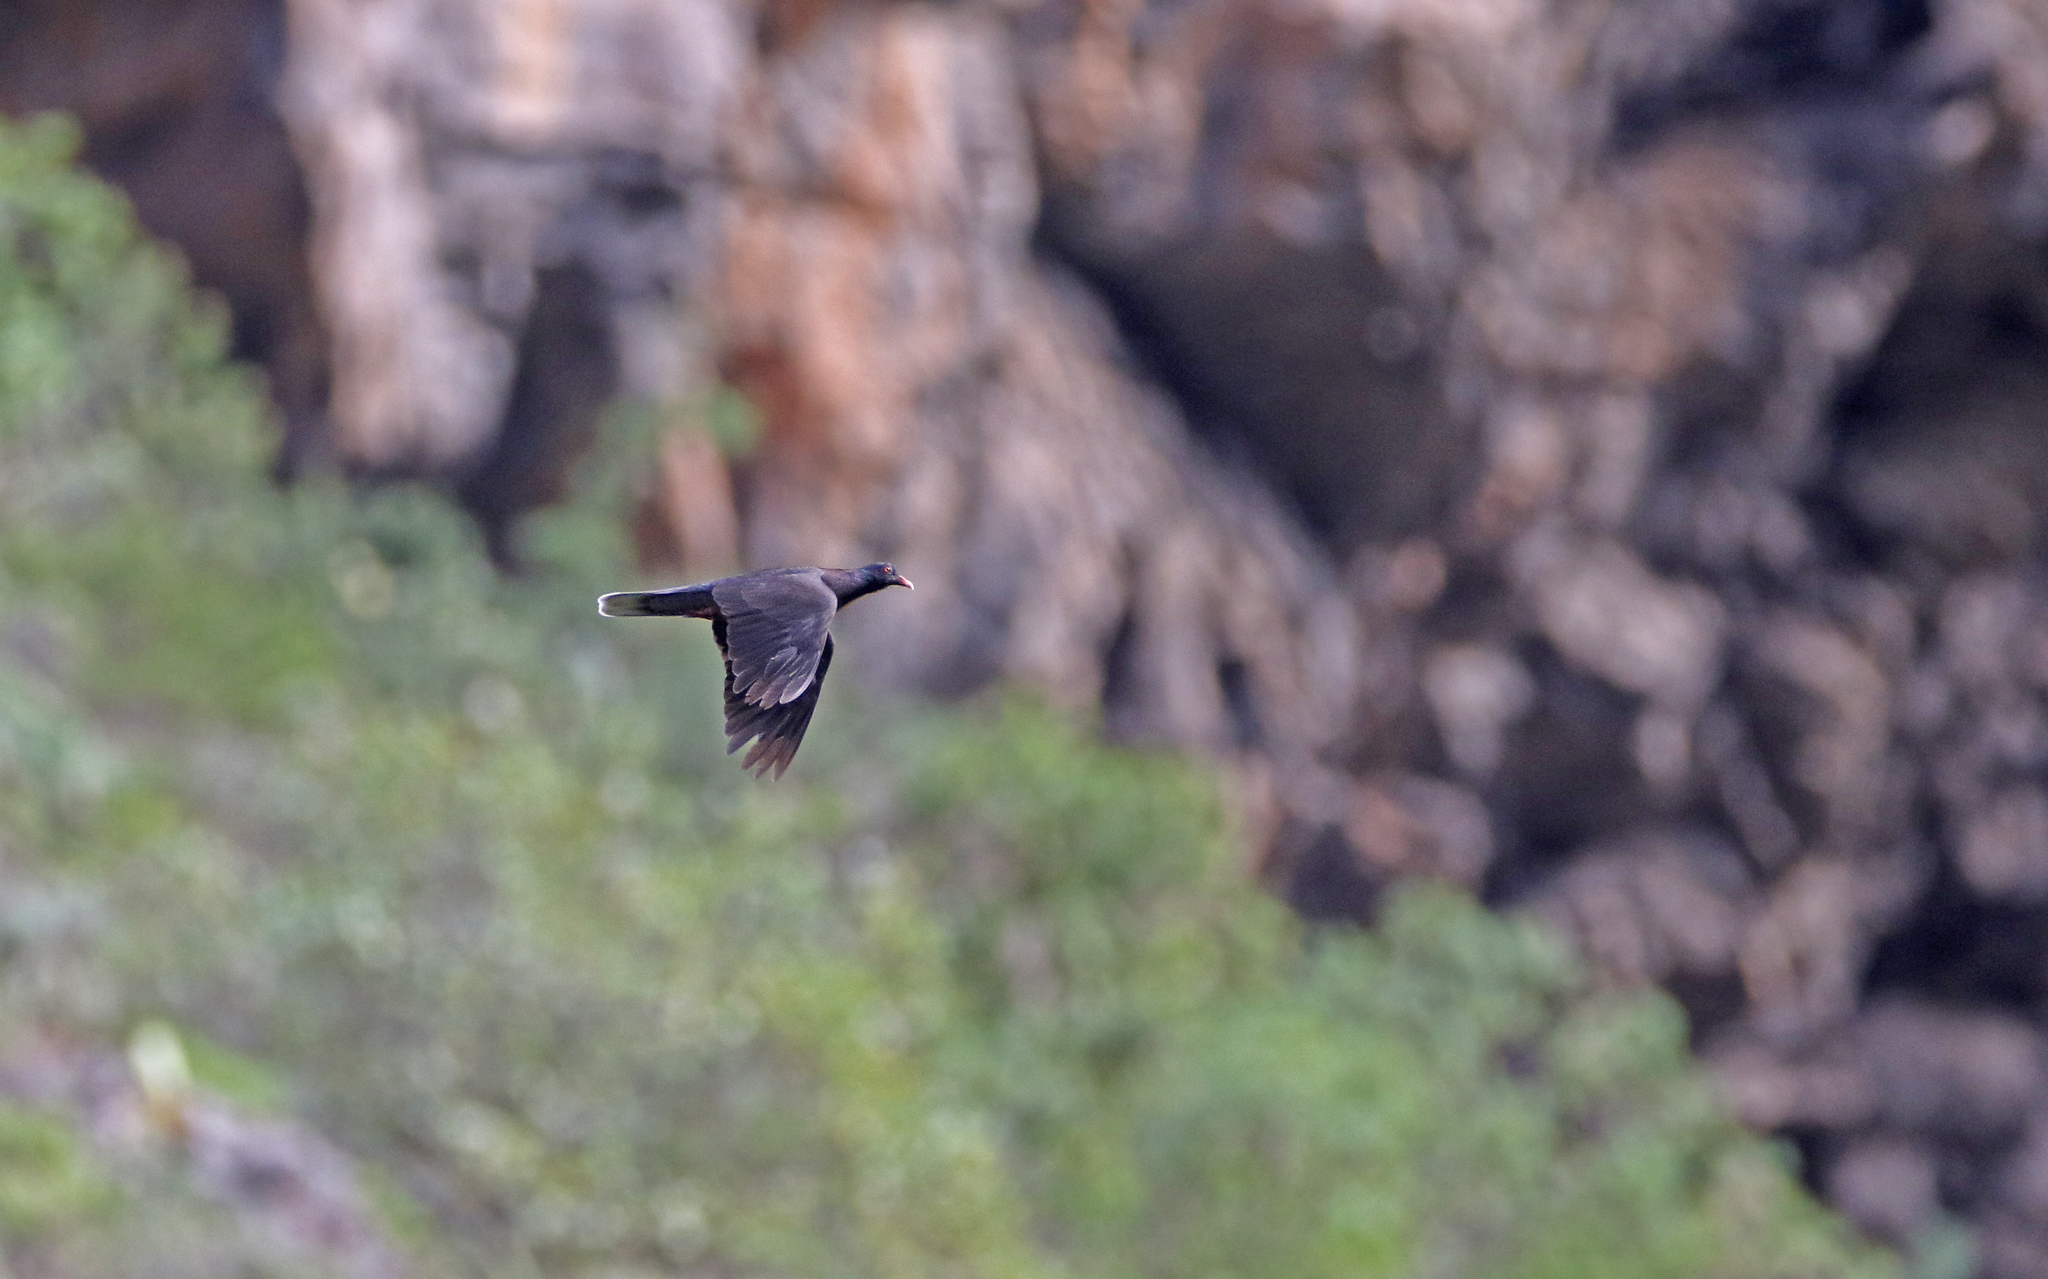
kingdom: Animalia
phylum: Chordata
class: Aves
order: Columbiformes
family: Columbidae
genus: Columba
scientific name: Columba junoniae
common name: Laurel pigeon
